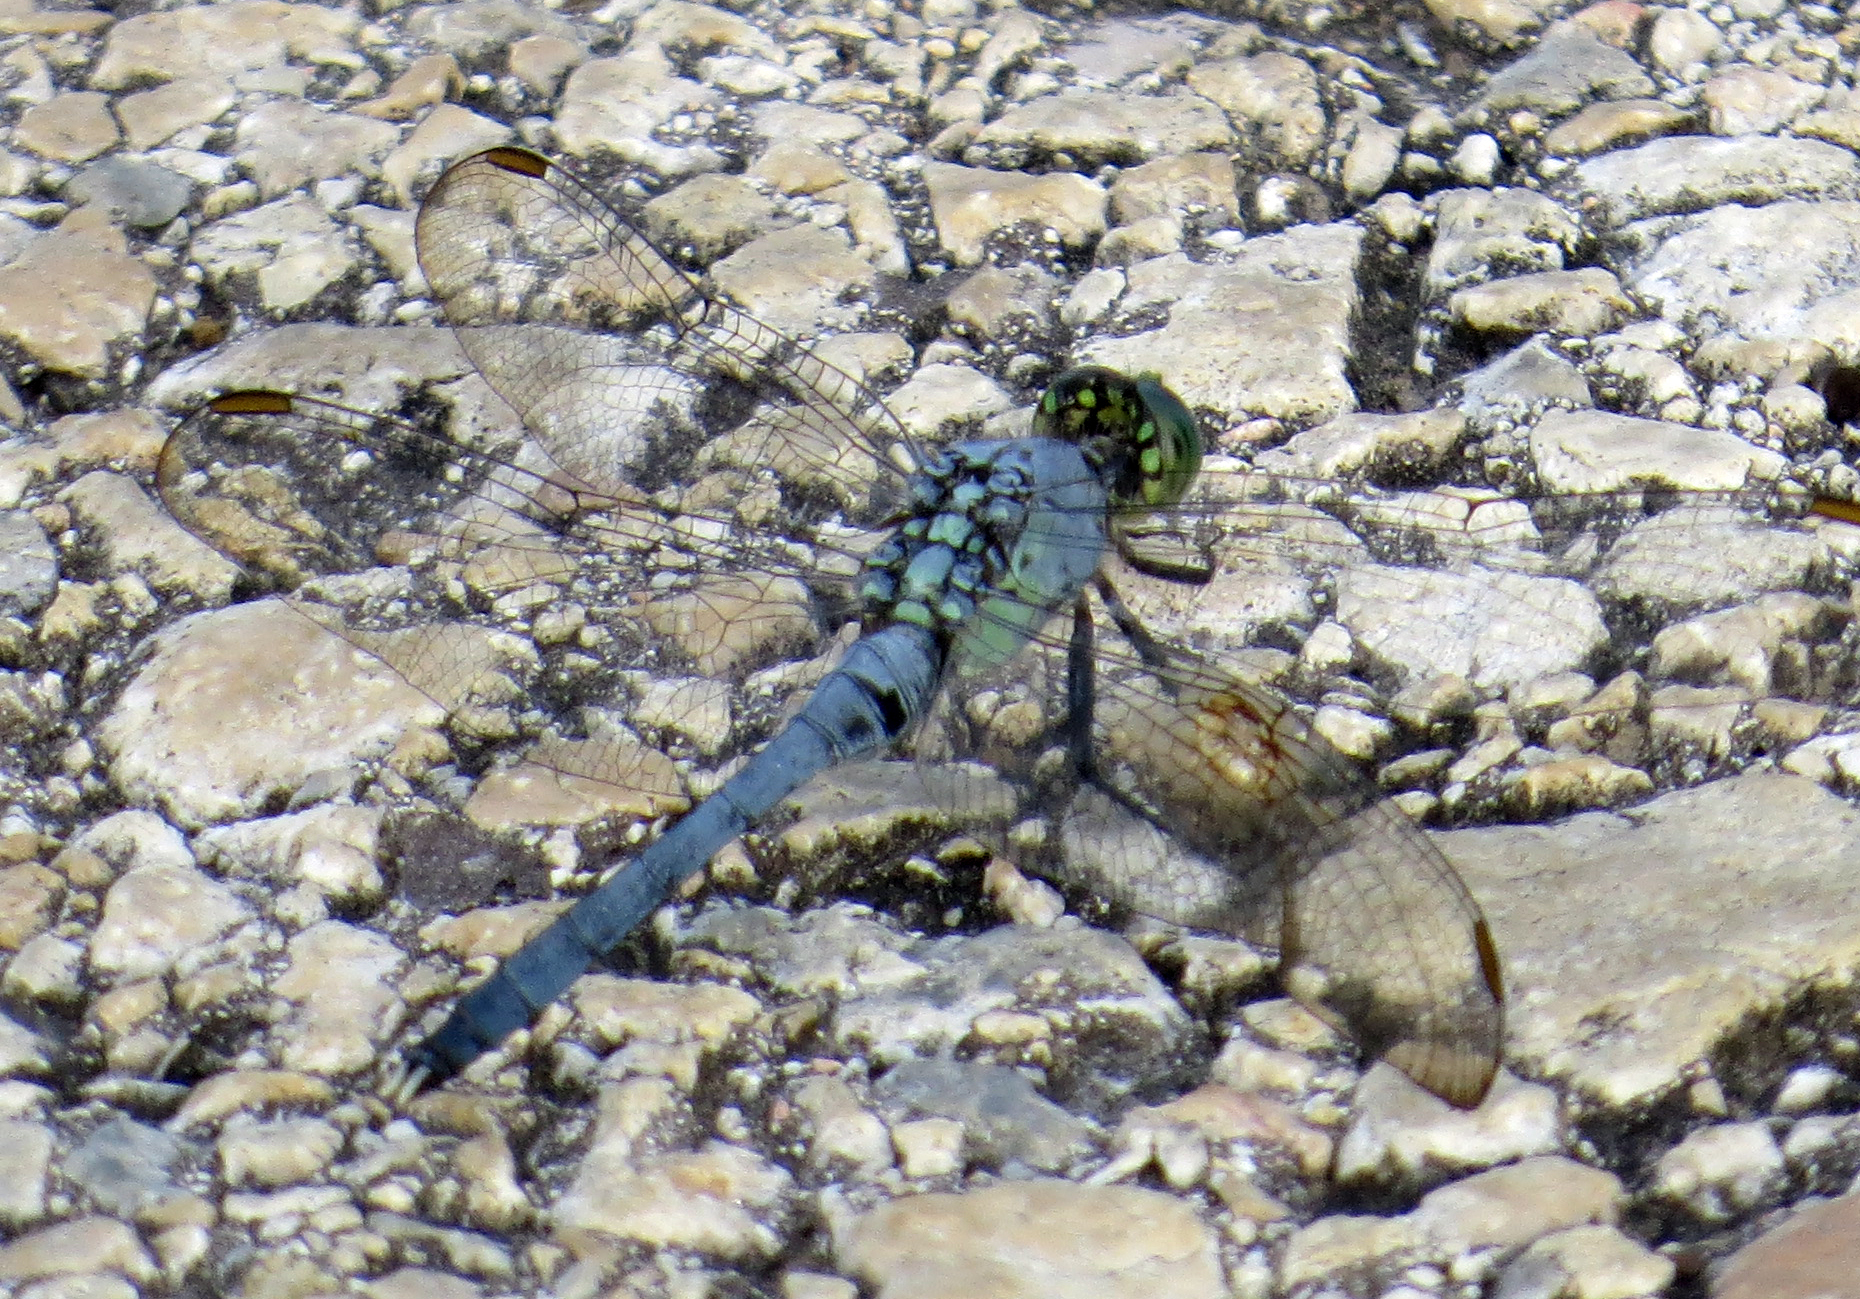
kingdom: Animalia
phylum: Arthropoda
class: Insecta
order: Odonata
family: Libellulidae
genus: Erythemis
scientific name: Erythemis simplicicollis
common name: Eastern pondhawk
